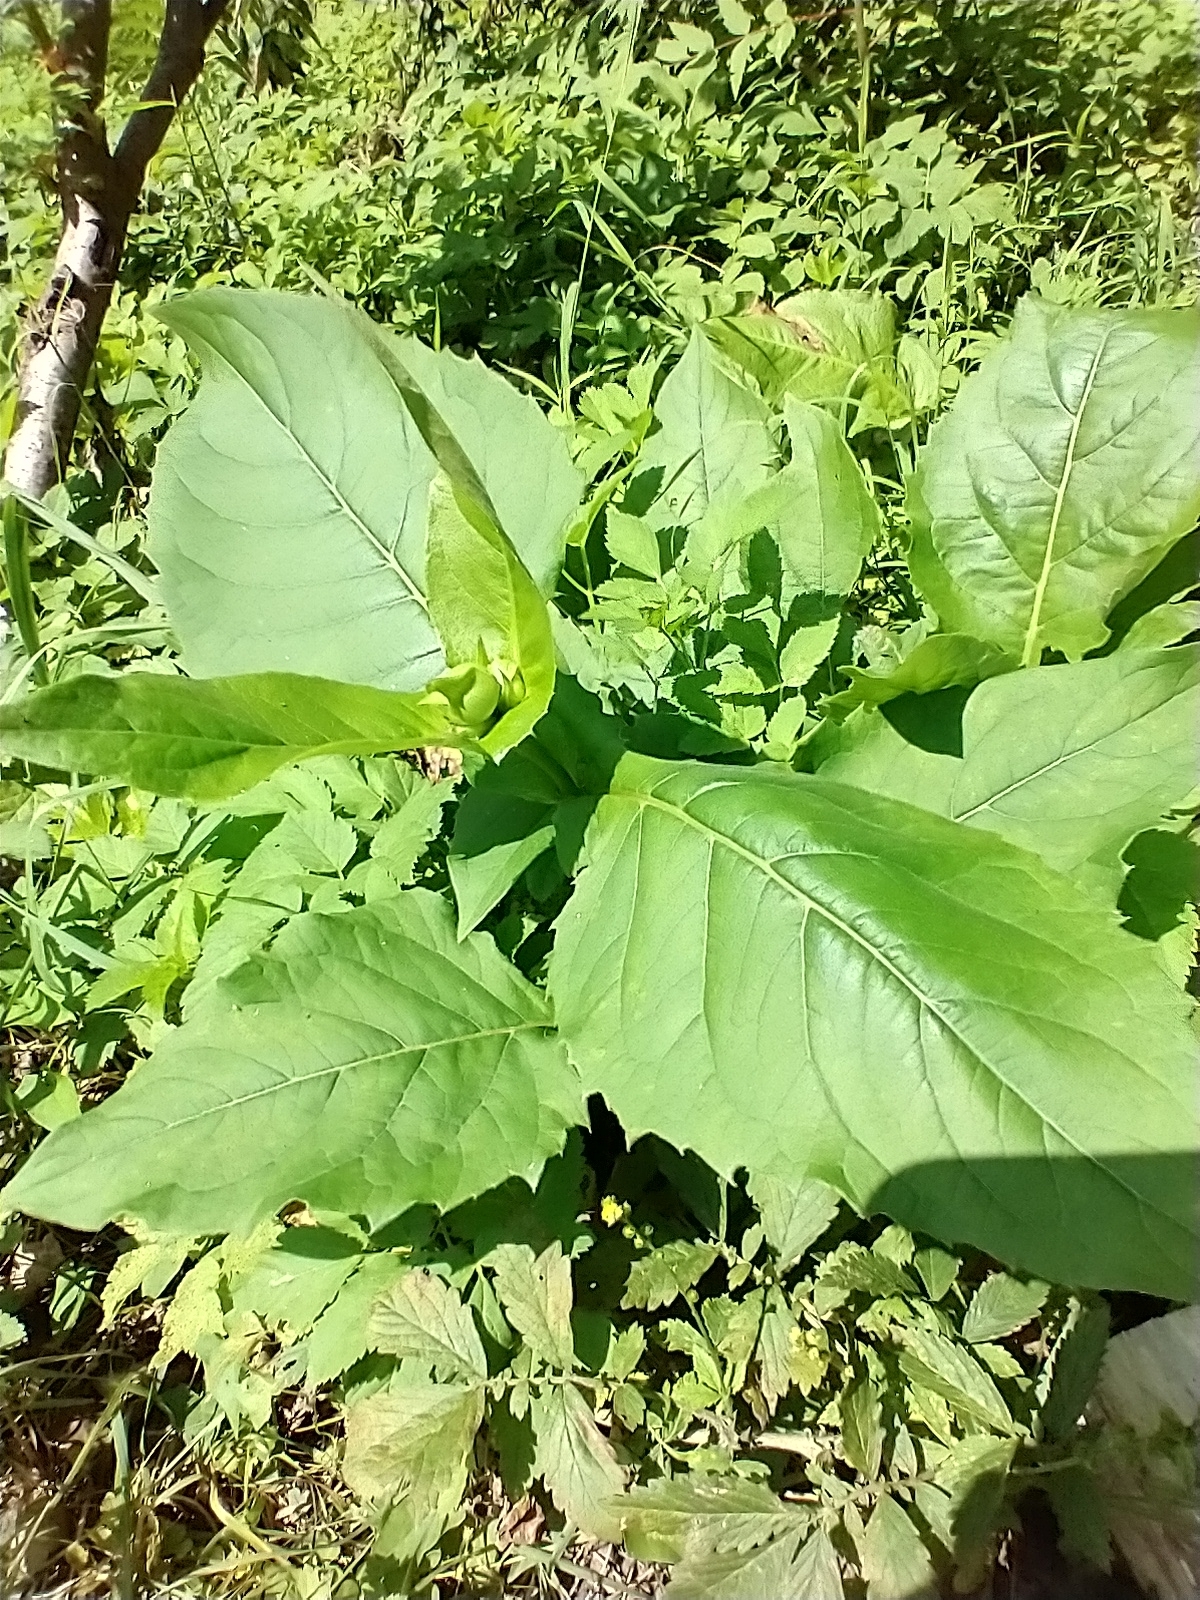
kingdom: Plantae
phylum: Tracheophyta
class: Magnoliopsida
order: Asterales
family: Asteraceae
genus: Silphium
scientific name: Silphium perfoliatum
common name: Cup-plant
